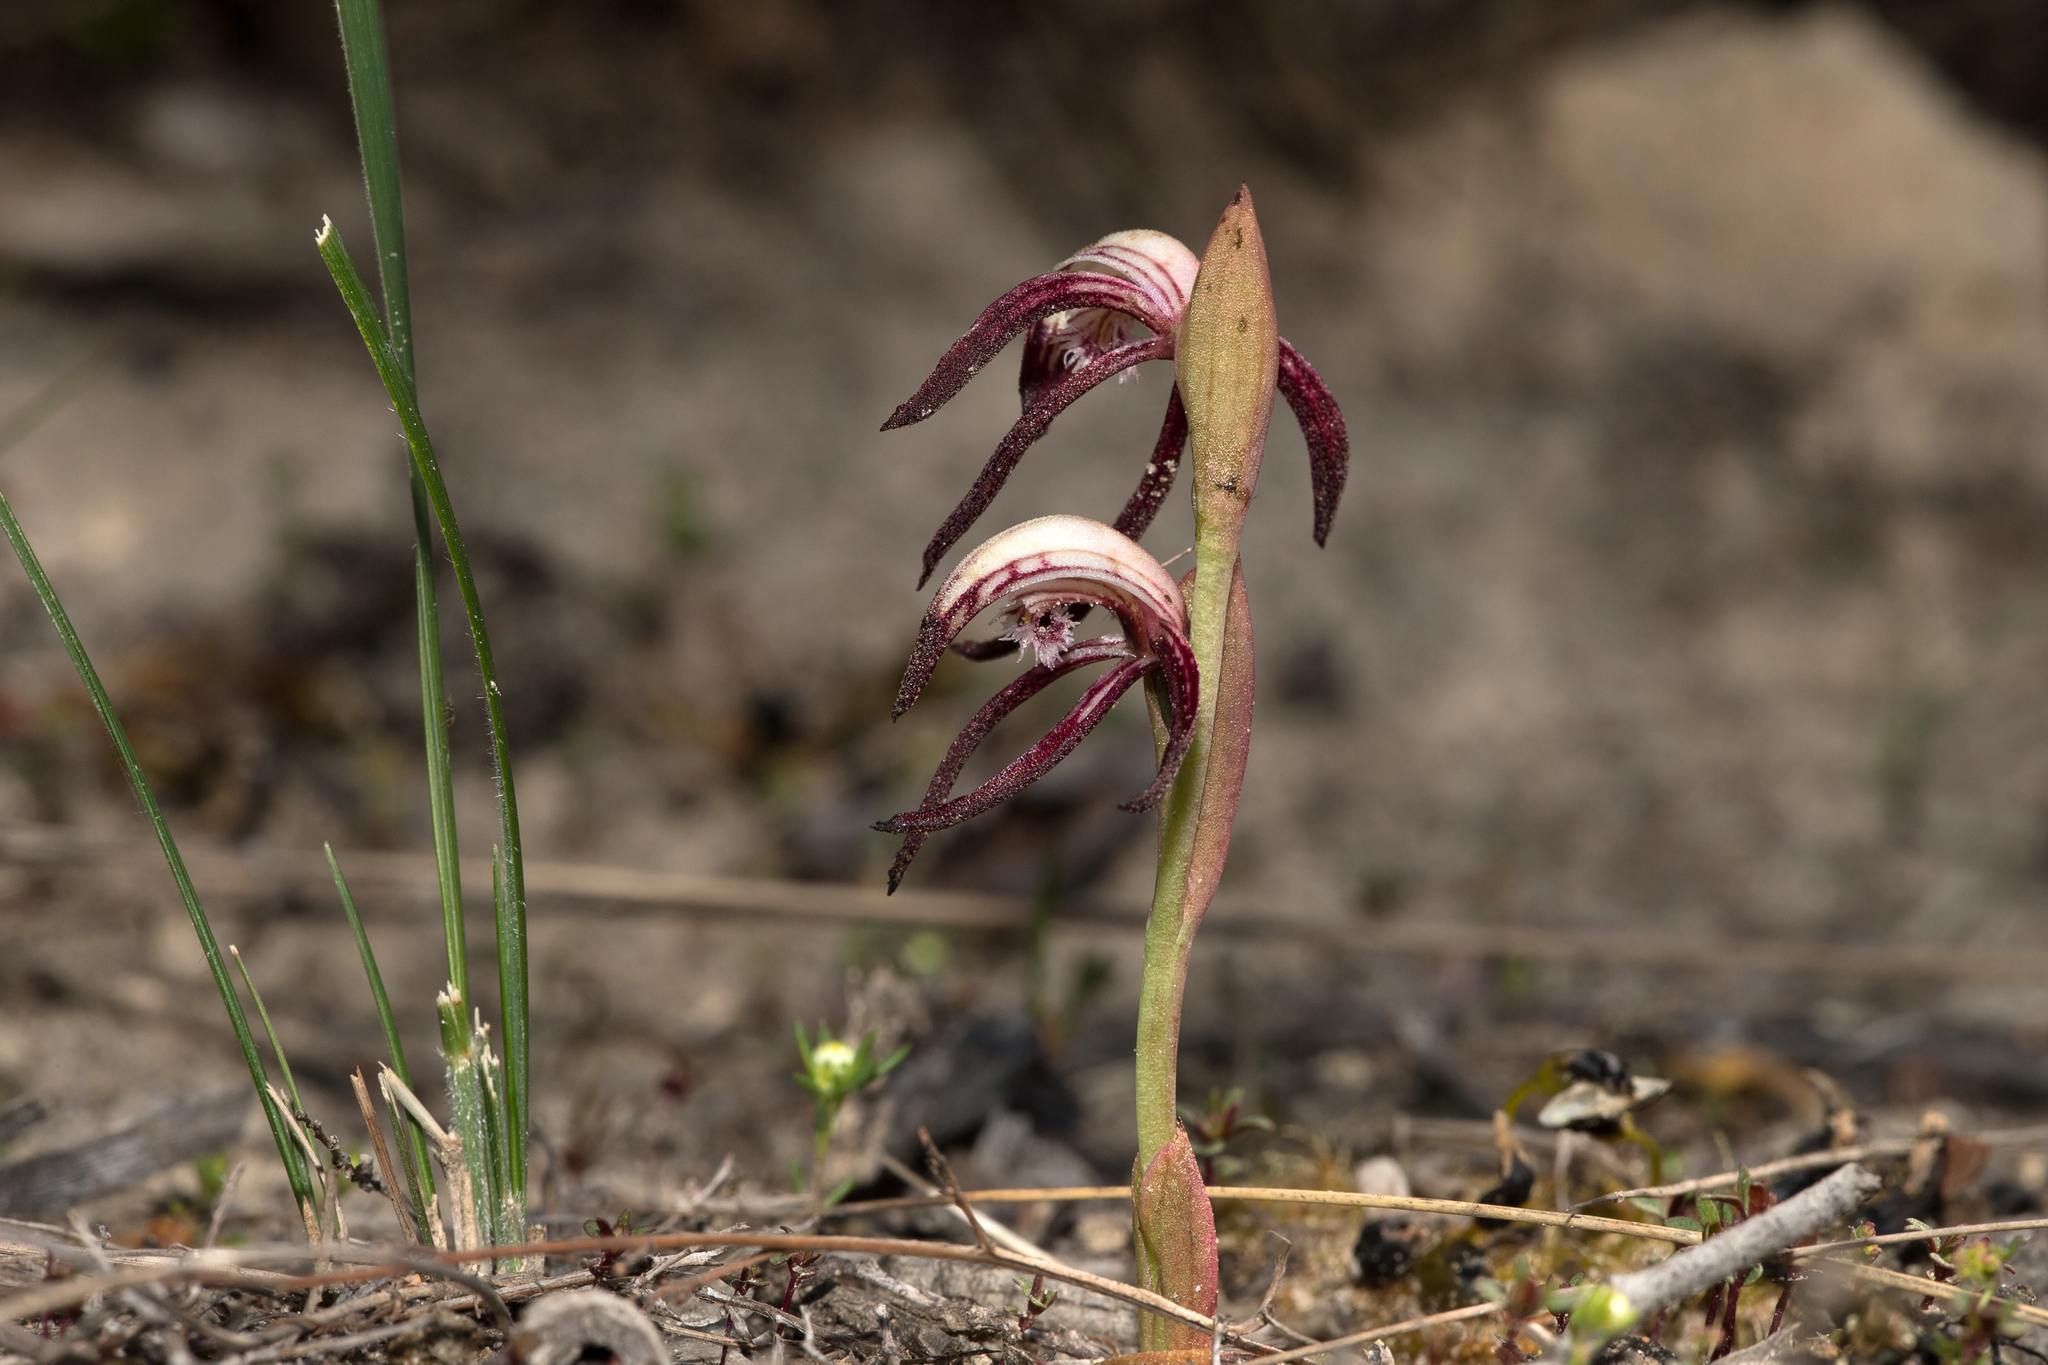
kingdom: Plantae
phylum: Tracheophyta
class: Liliopsida
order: Asparagales
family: Orchidaceae
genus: Pyrorchis
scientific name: Pyrorchis nigricans
